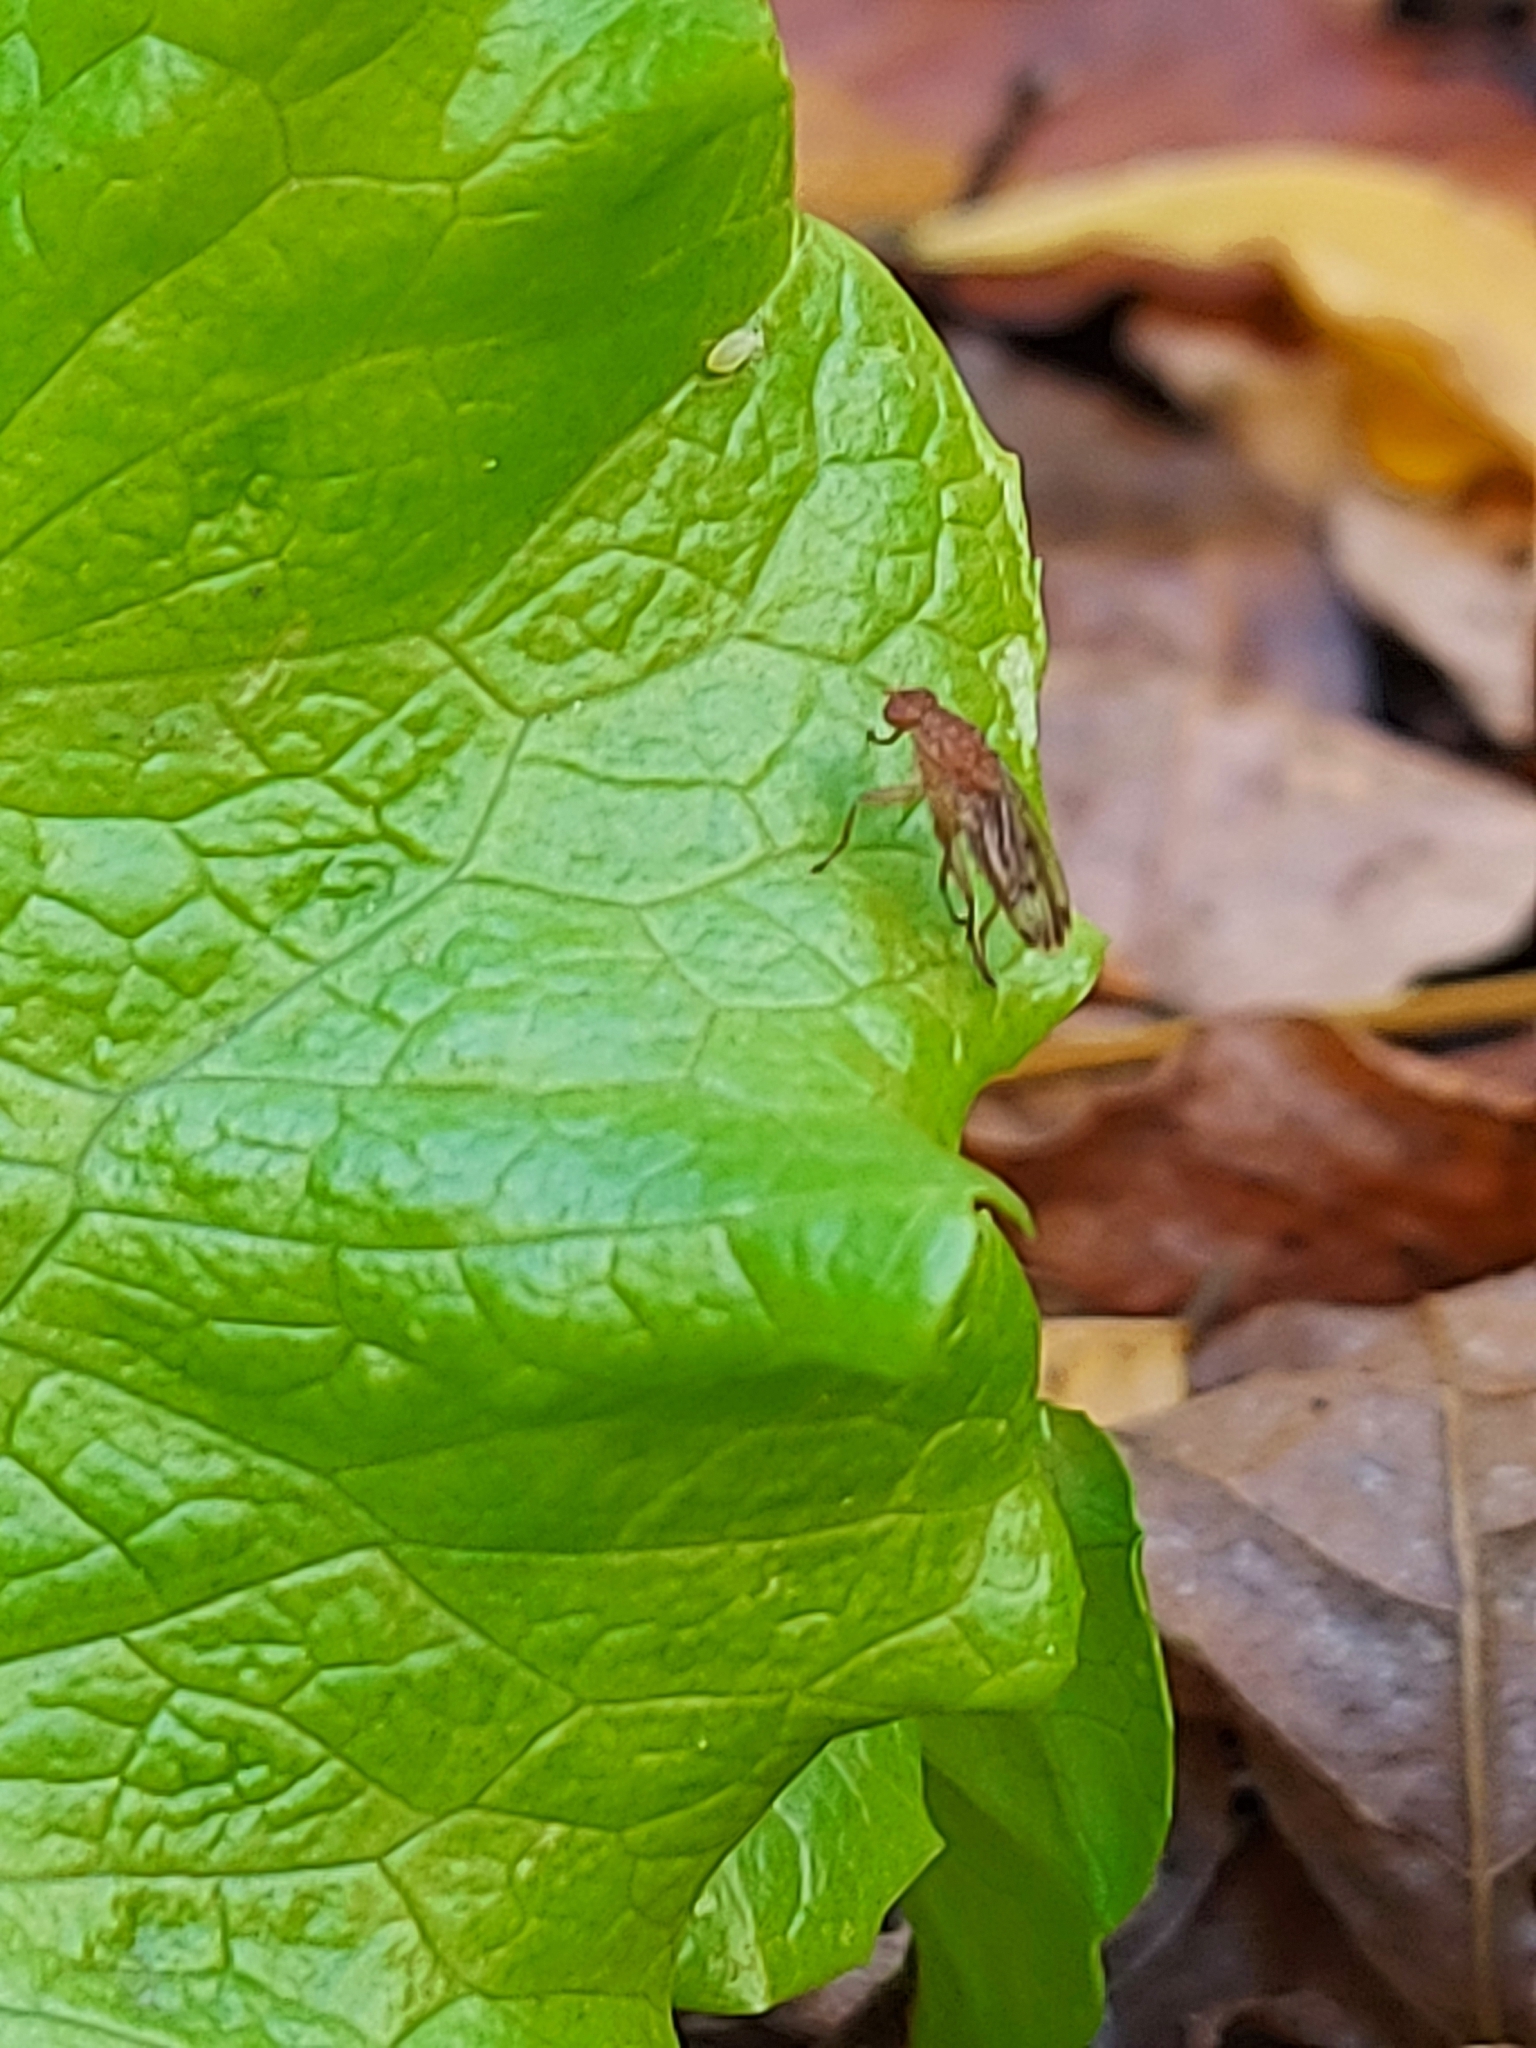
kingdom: Animalia
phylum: Arthropoda
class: Insecta
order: Diptera
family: Heleomyzidae
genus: Suillia
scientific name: Suillia variegata
